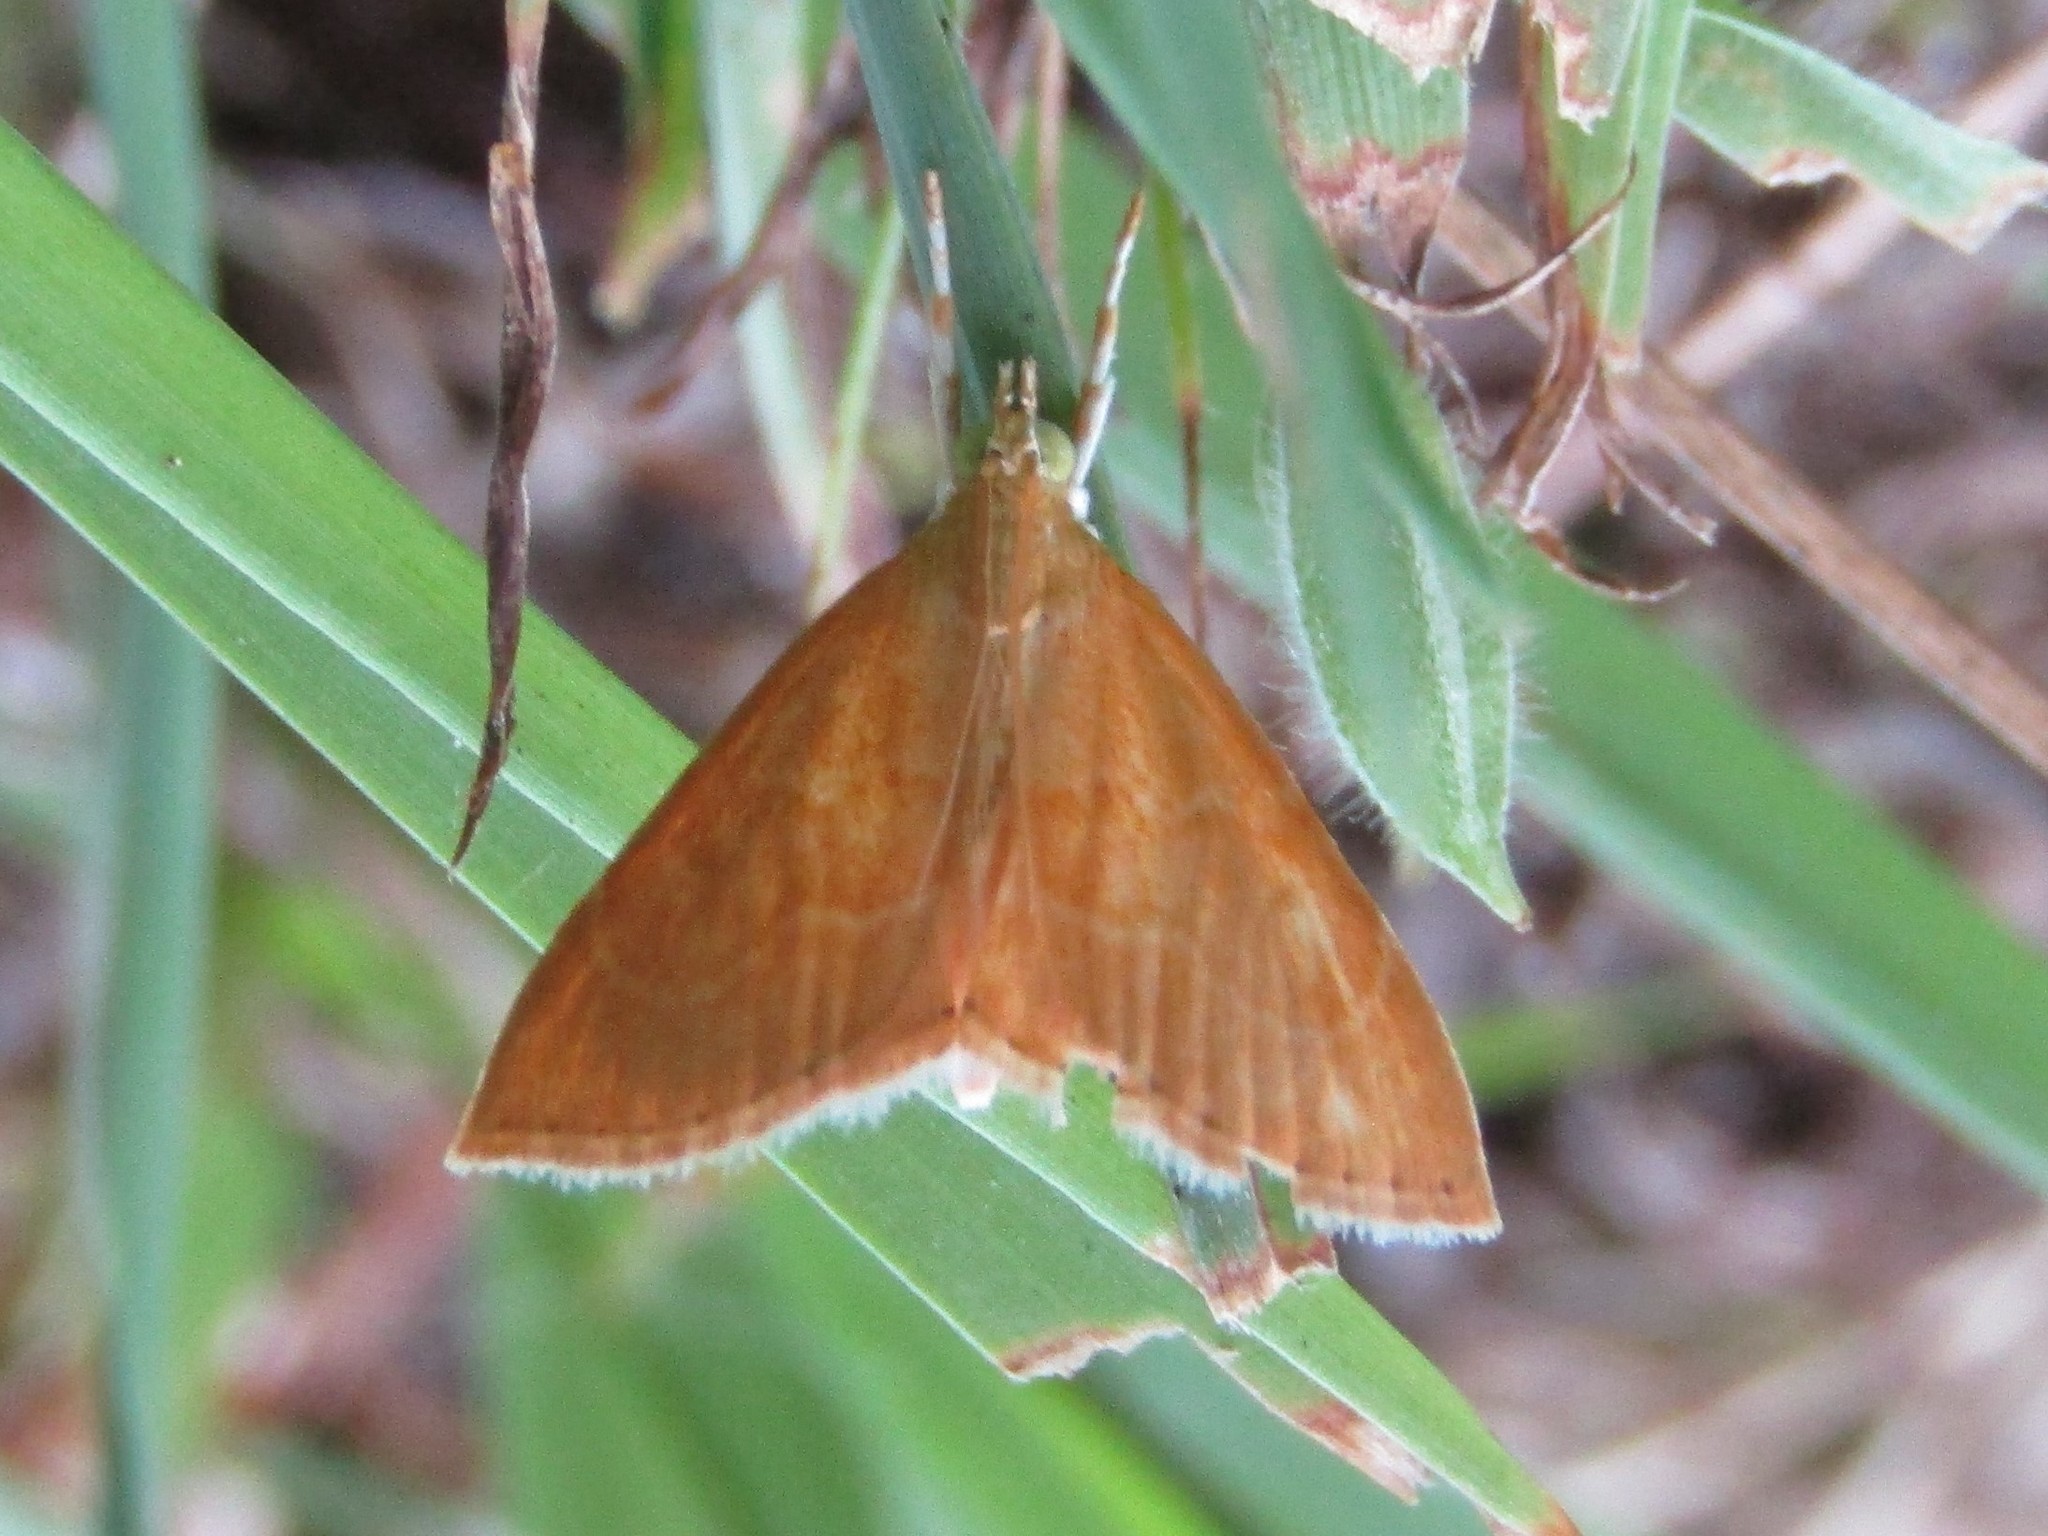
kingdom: Animalia
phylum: Arthropoda
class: Insecta
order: Lepidoptera
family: Crambidae
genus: Glaphyria
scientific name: Glaphyria invisalis
